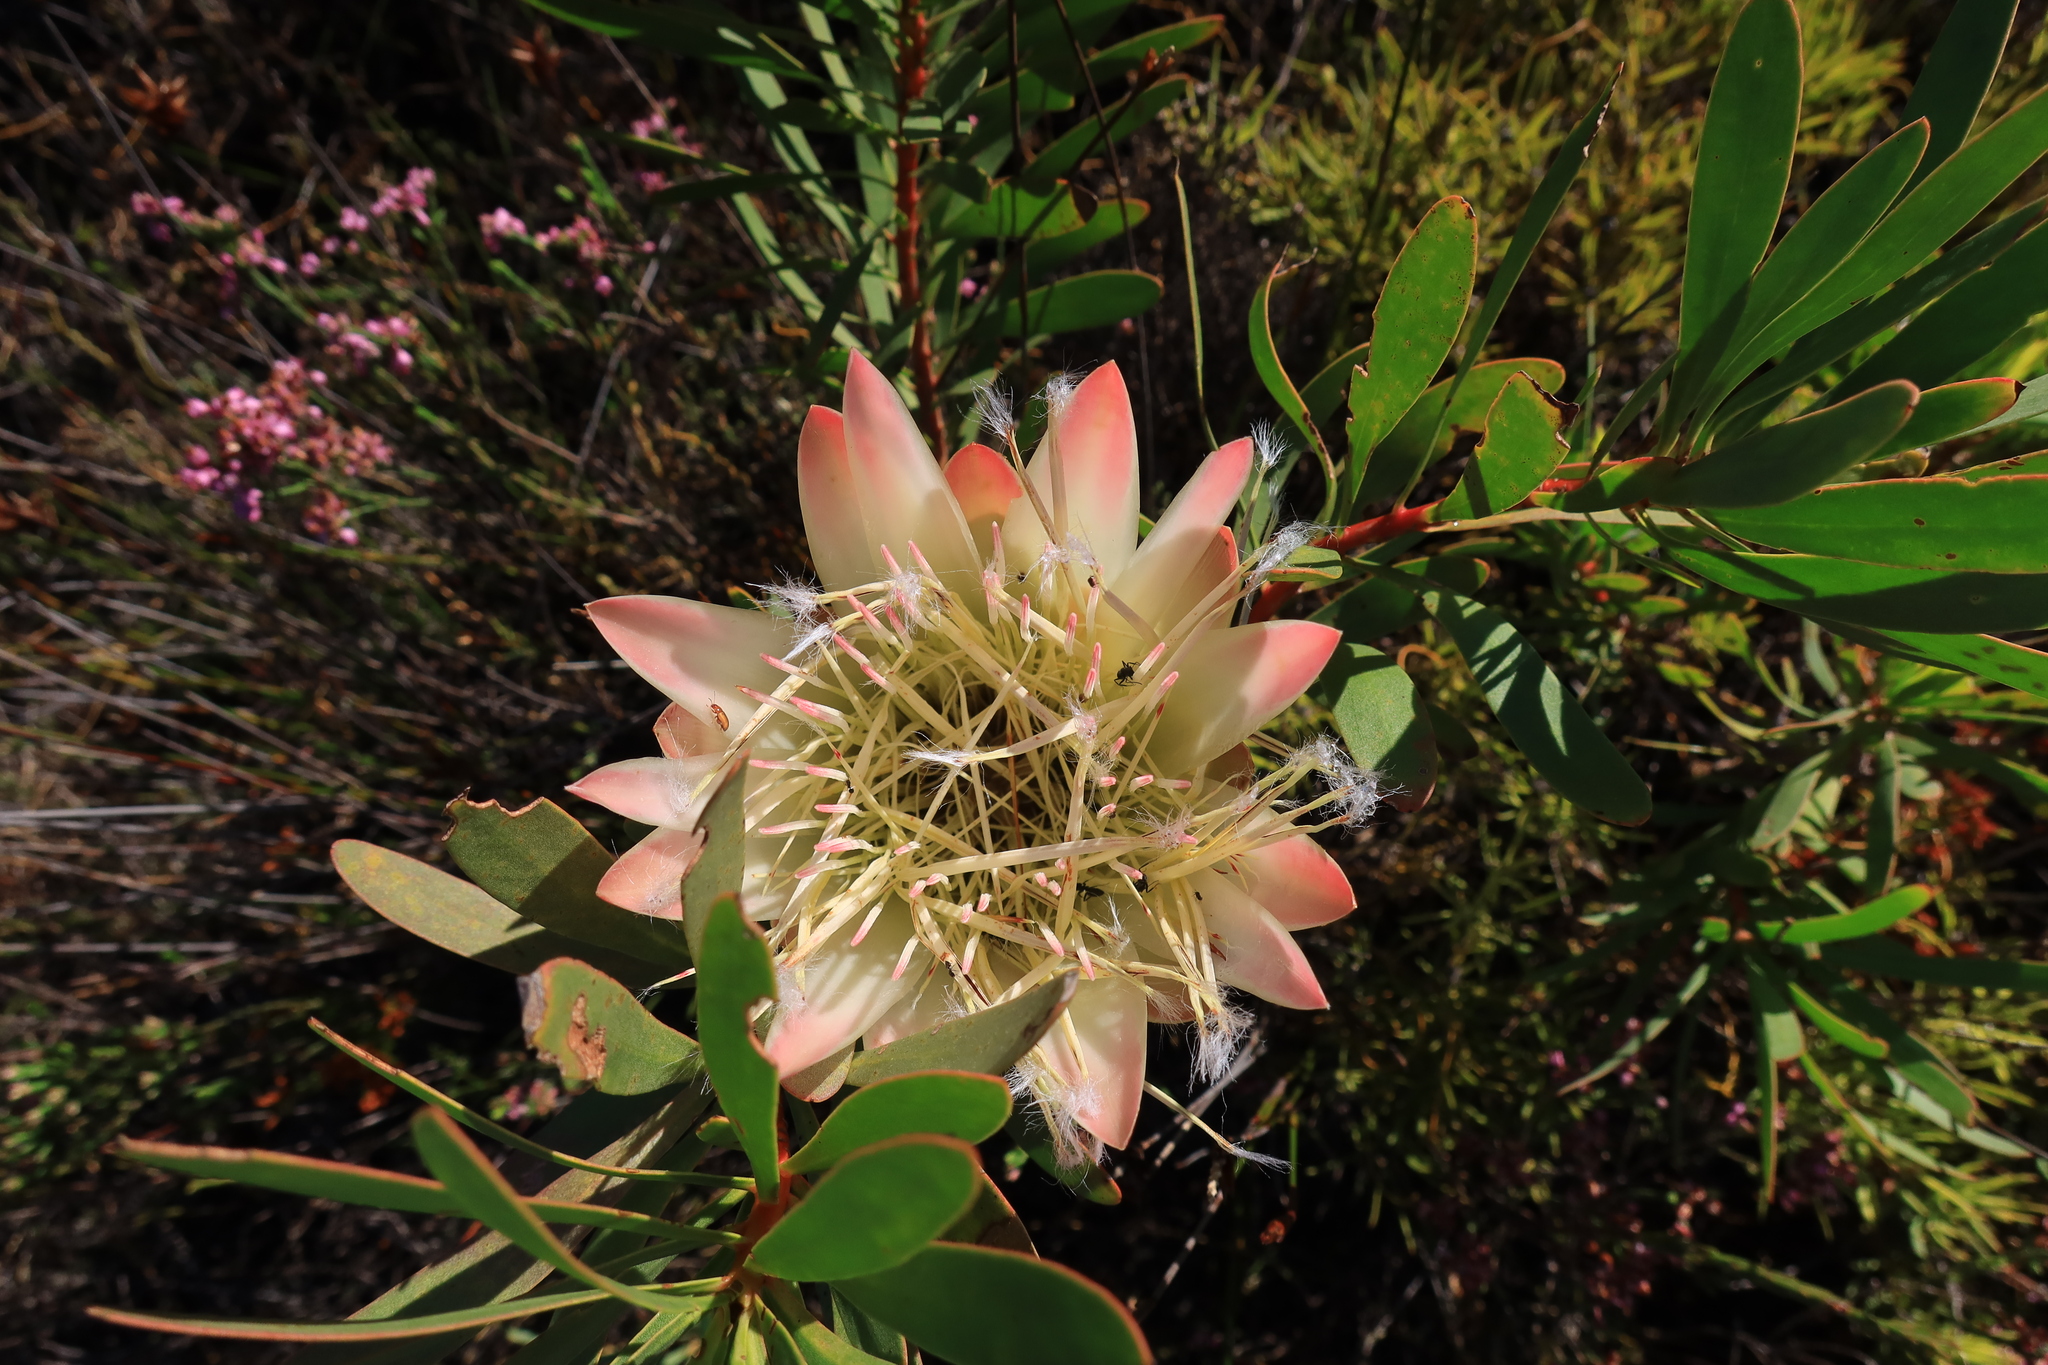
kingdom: Plantae
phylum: Tracheophyta
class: Magnoliopsida
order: Proteales
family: Proteaceae
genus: Protea
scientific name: Protea repens
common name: Sugarbush
